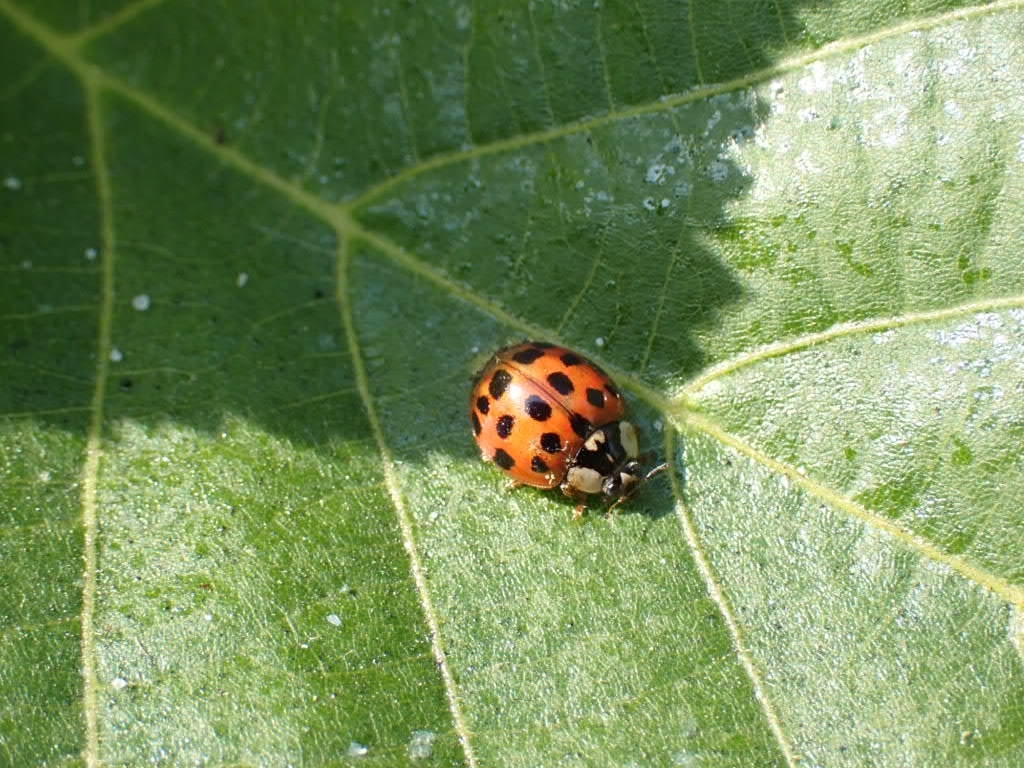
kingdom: Animalia
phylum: Arthropoda
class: Insecta
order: Coleoptera
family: Coccinellidae
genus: Harmonia
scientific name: Harmonia axyridis
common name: Harlequin ladybird
